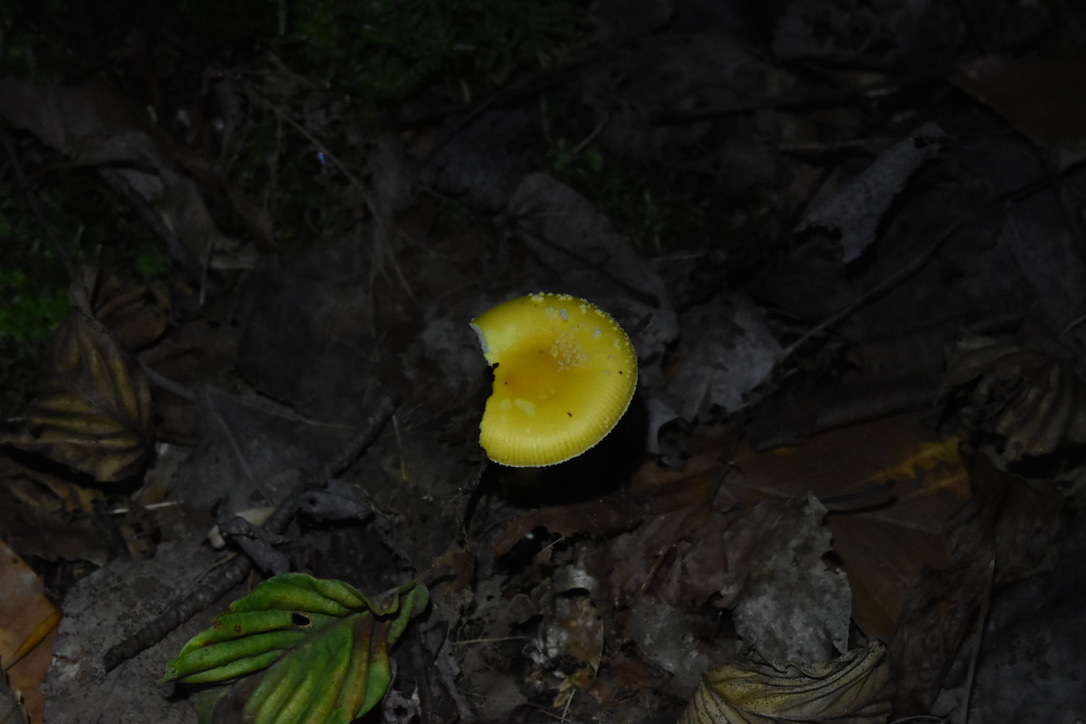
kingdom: Fungi
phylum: Basidiomycota
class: Agaricomycetes
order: Agaricales
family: Amanitaceae
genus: Amanita
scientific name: Amanita frostiana
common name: Frost's amanita
